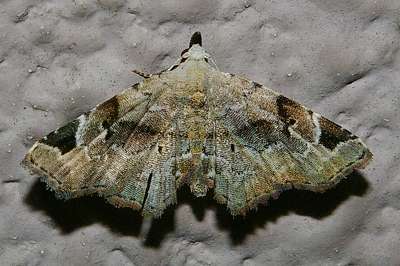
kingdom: Animalia
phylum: Arthropoda
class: Insecta
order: Lepidoptera
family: Erebidae
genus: Aventiola
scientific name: Aventiola pusilla
